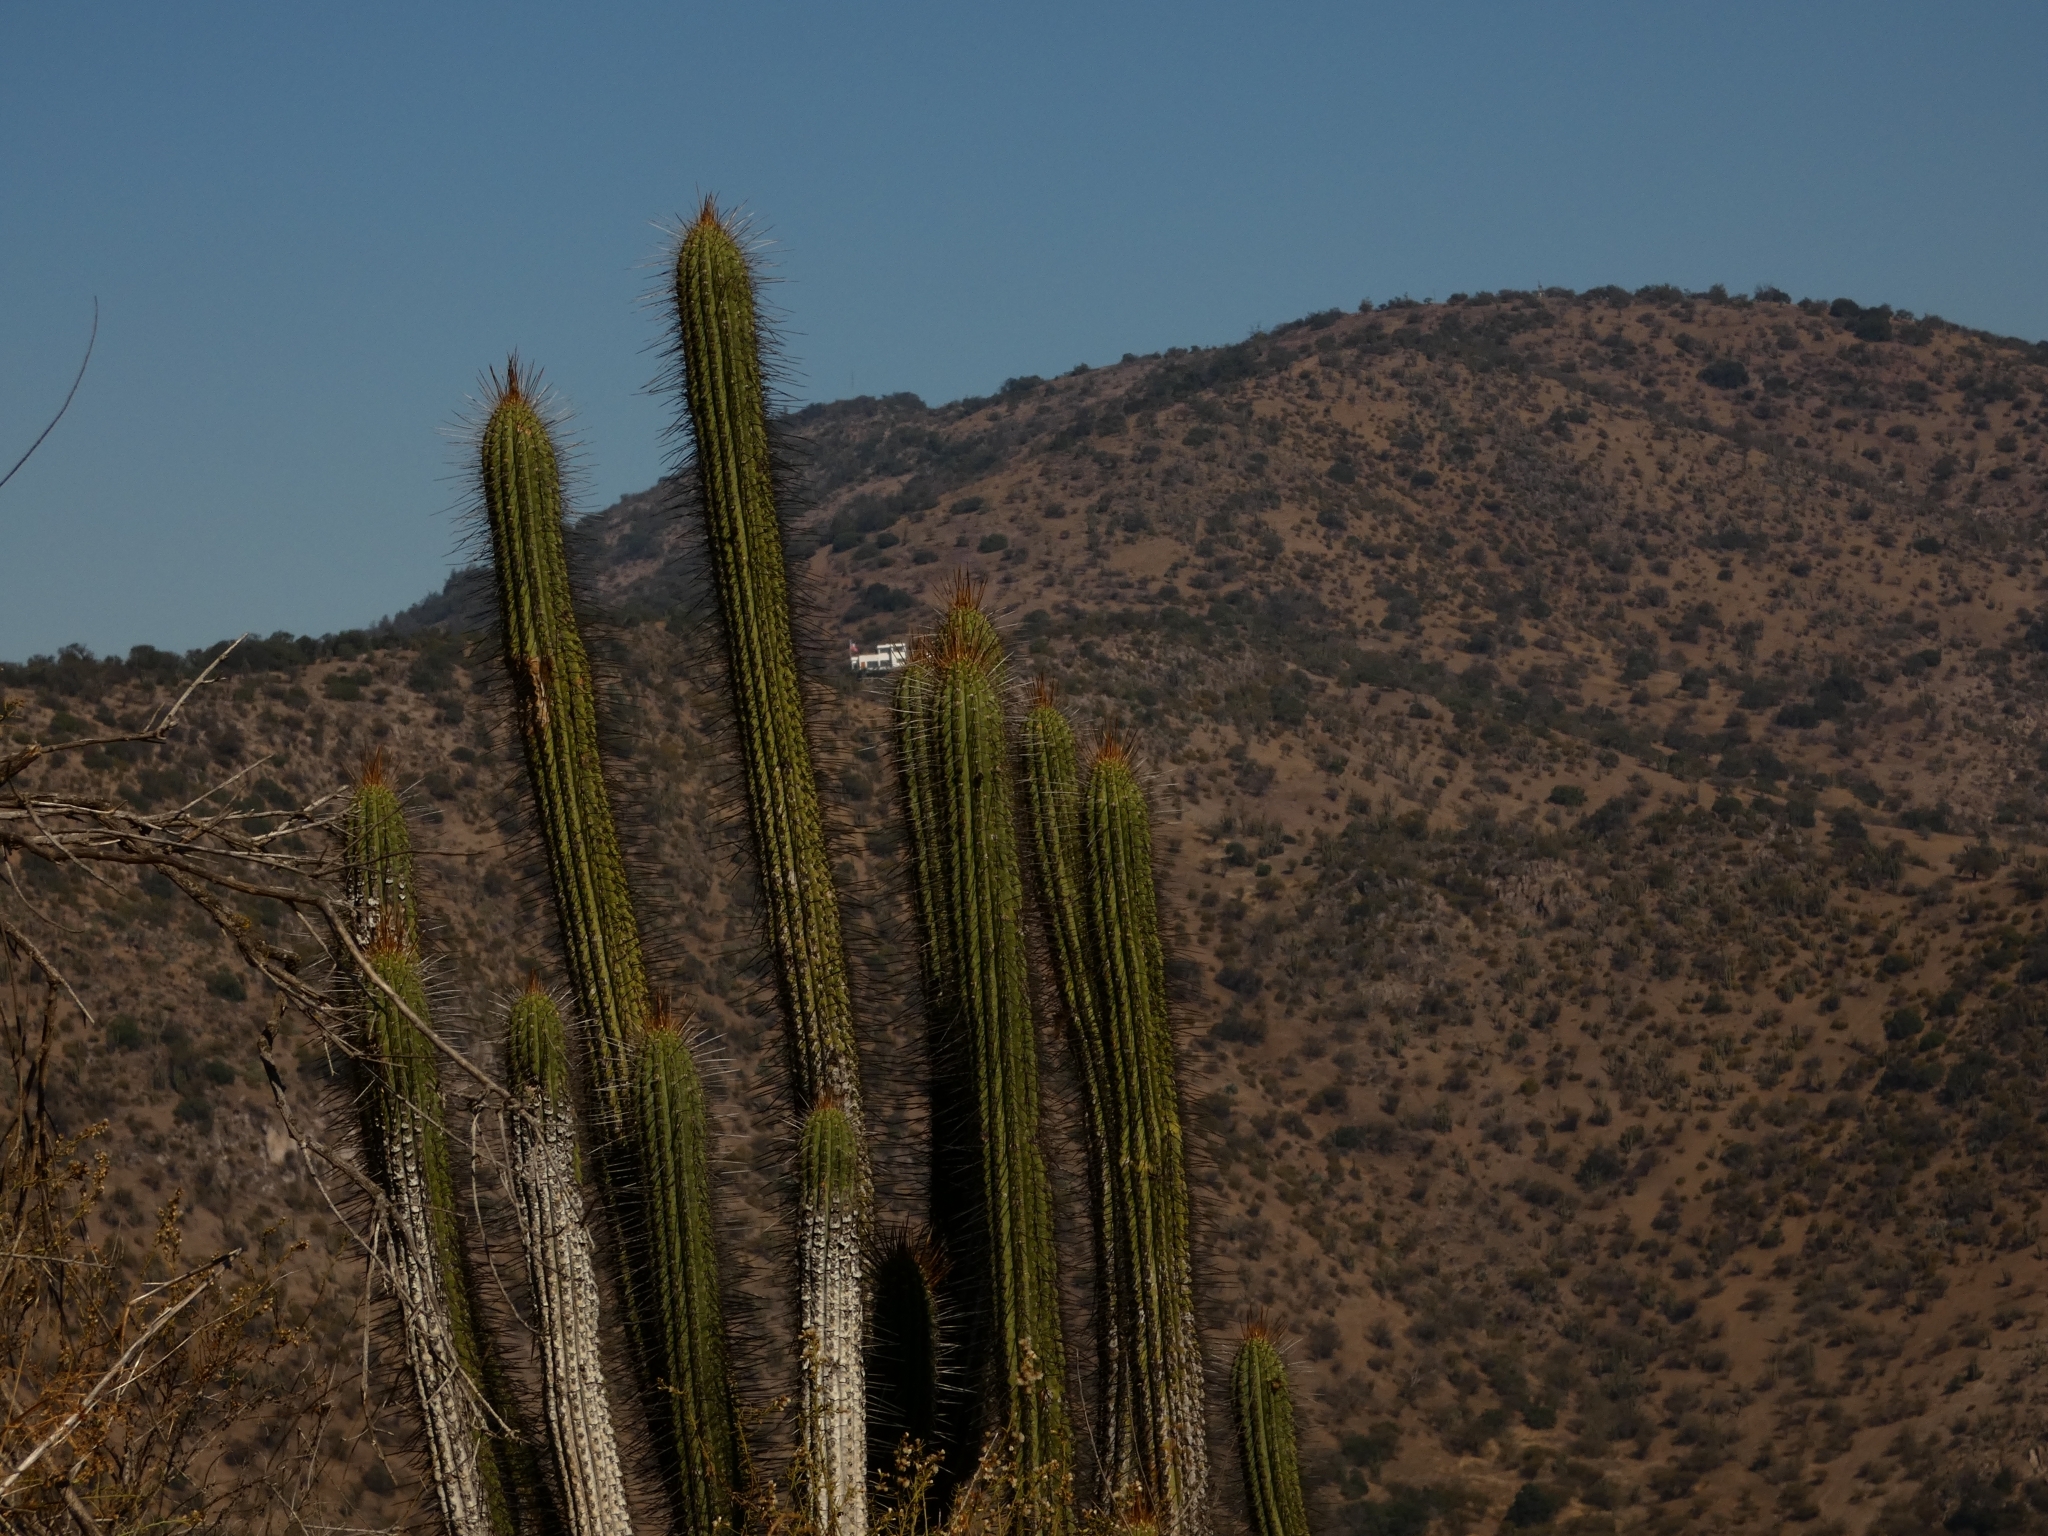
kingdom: Plantae
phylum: Tracheophyta
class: Magnoliopsida
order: Caryophyllales
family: Cactaceae
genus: Leucostele
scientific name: Leucostele chiloensis
